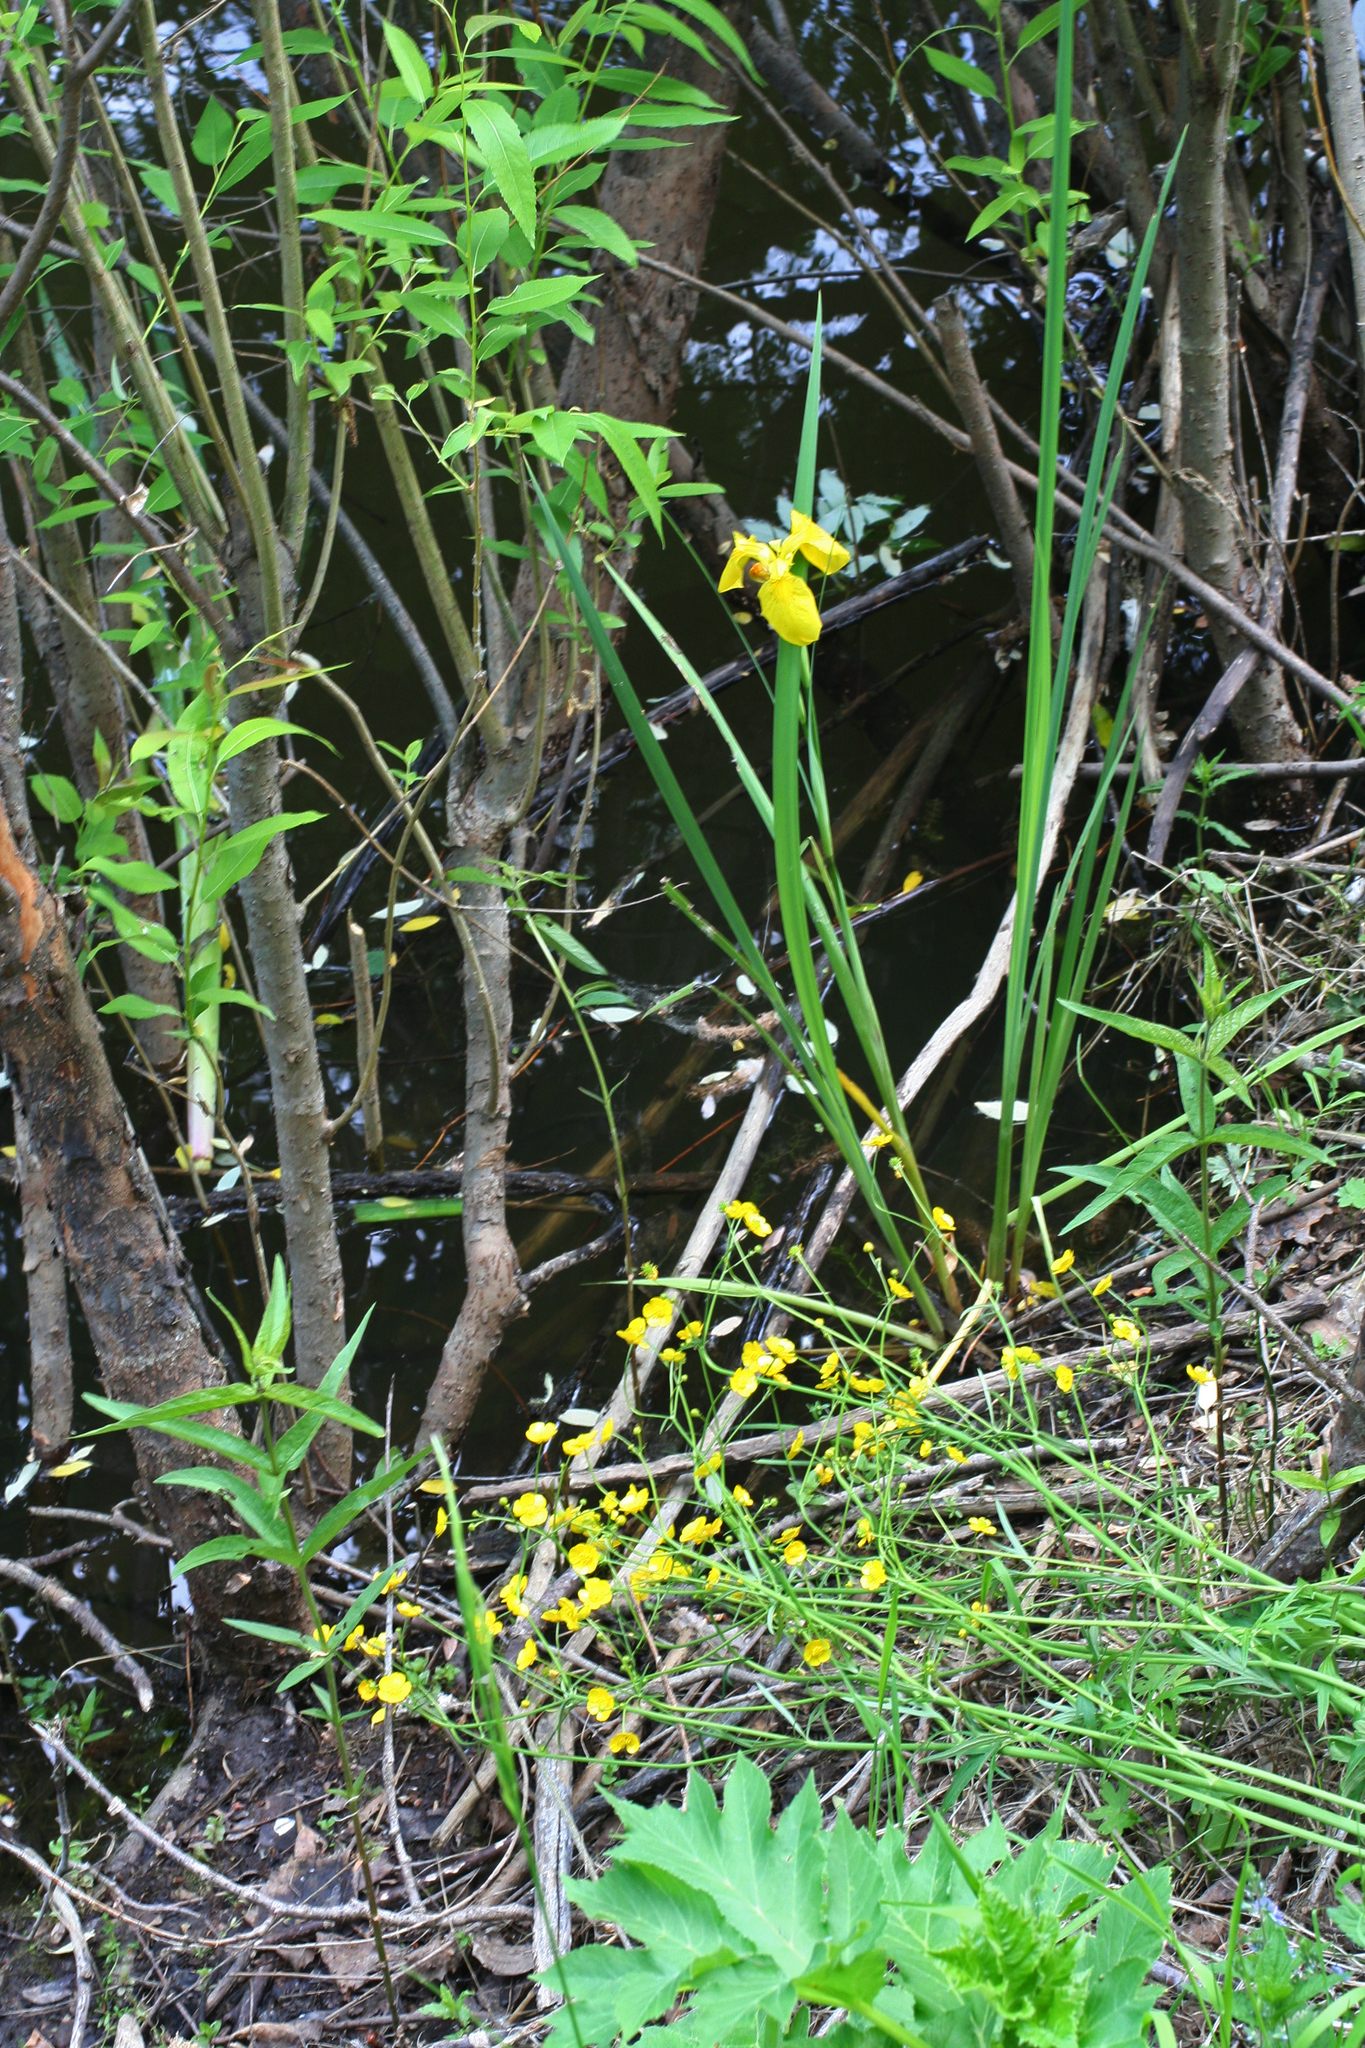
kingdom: Plantae
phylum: Tracheophyta
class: Liliopsida
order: Asparagales
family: Iridaceae
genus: Iris
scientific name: Iris pseudacorus
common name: Yellow flag
